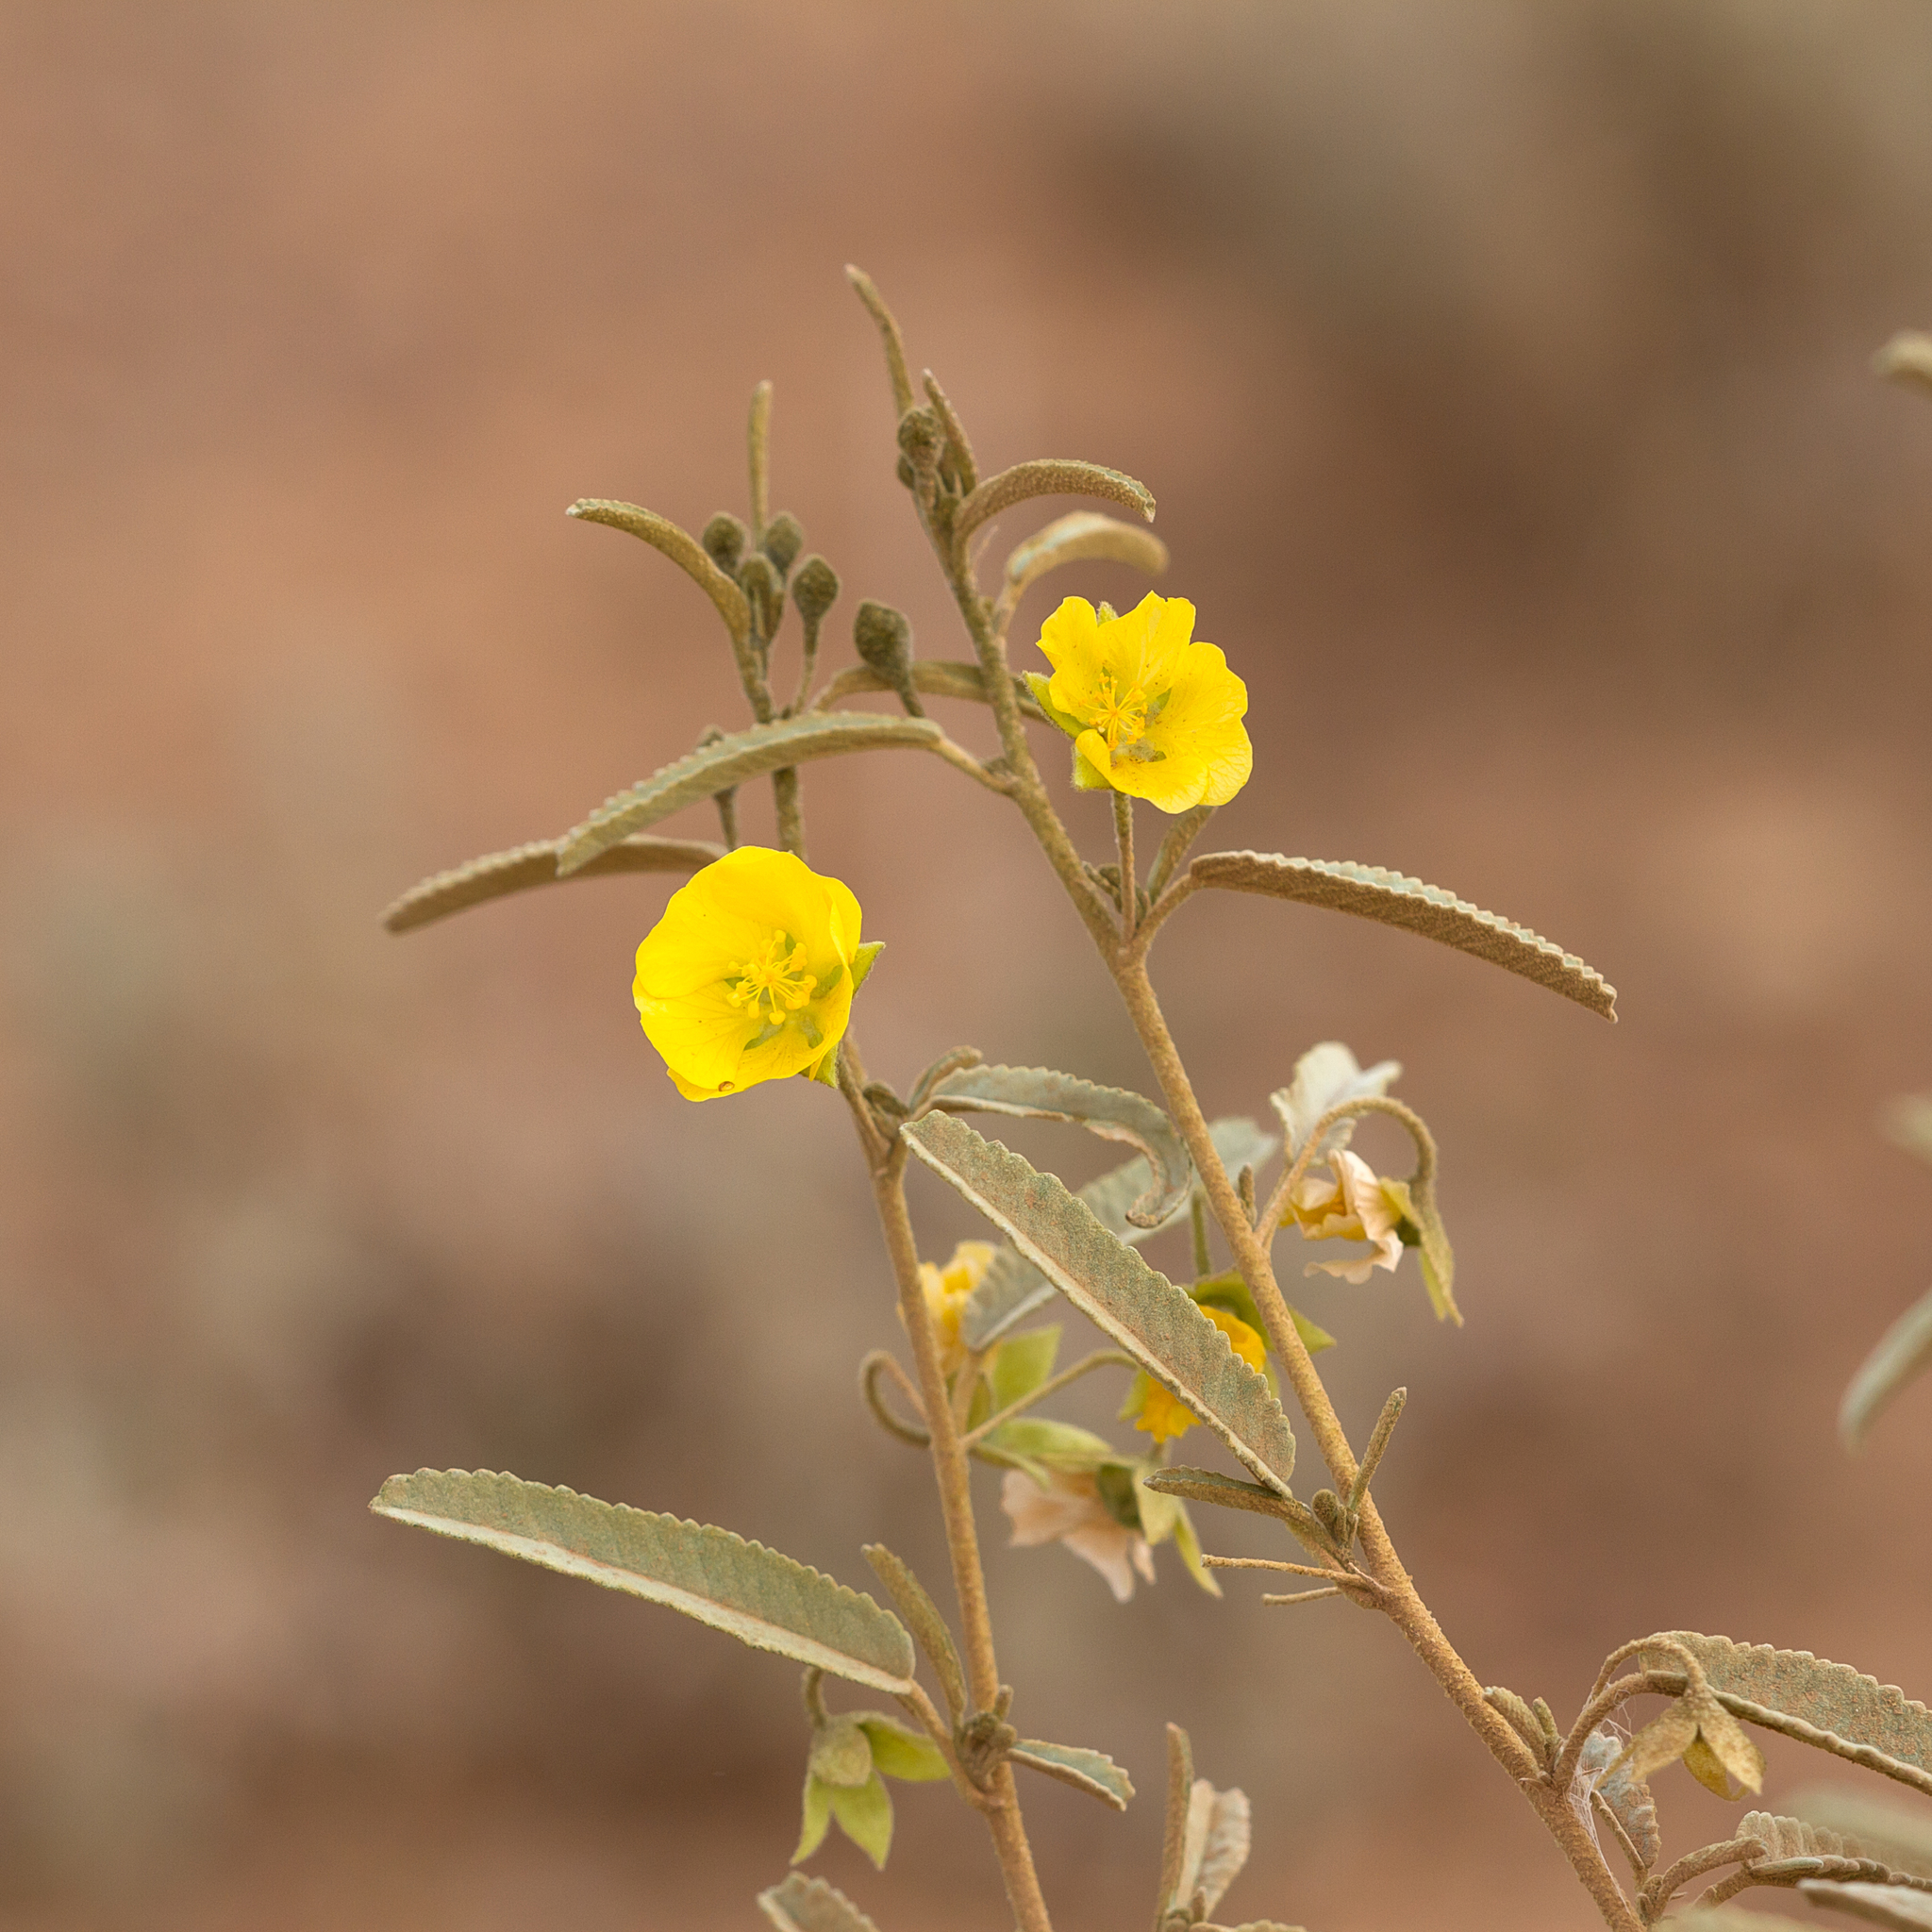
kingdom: Plantae
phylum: Tracheophyta
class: Magnoliopsida
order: Malvales
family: Malvaceae
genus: Sida
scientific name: Sida calyxhymenia
